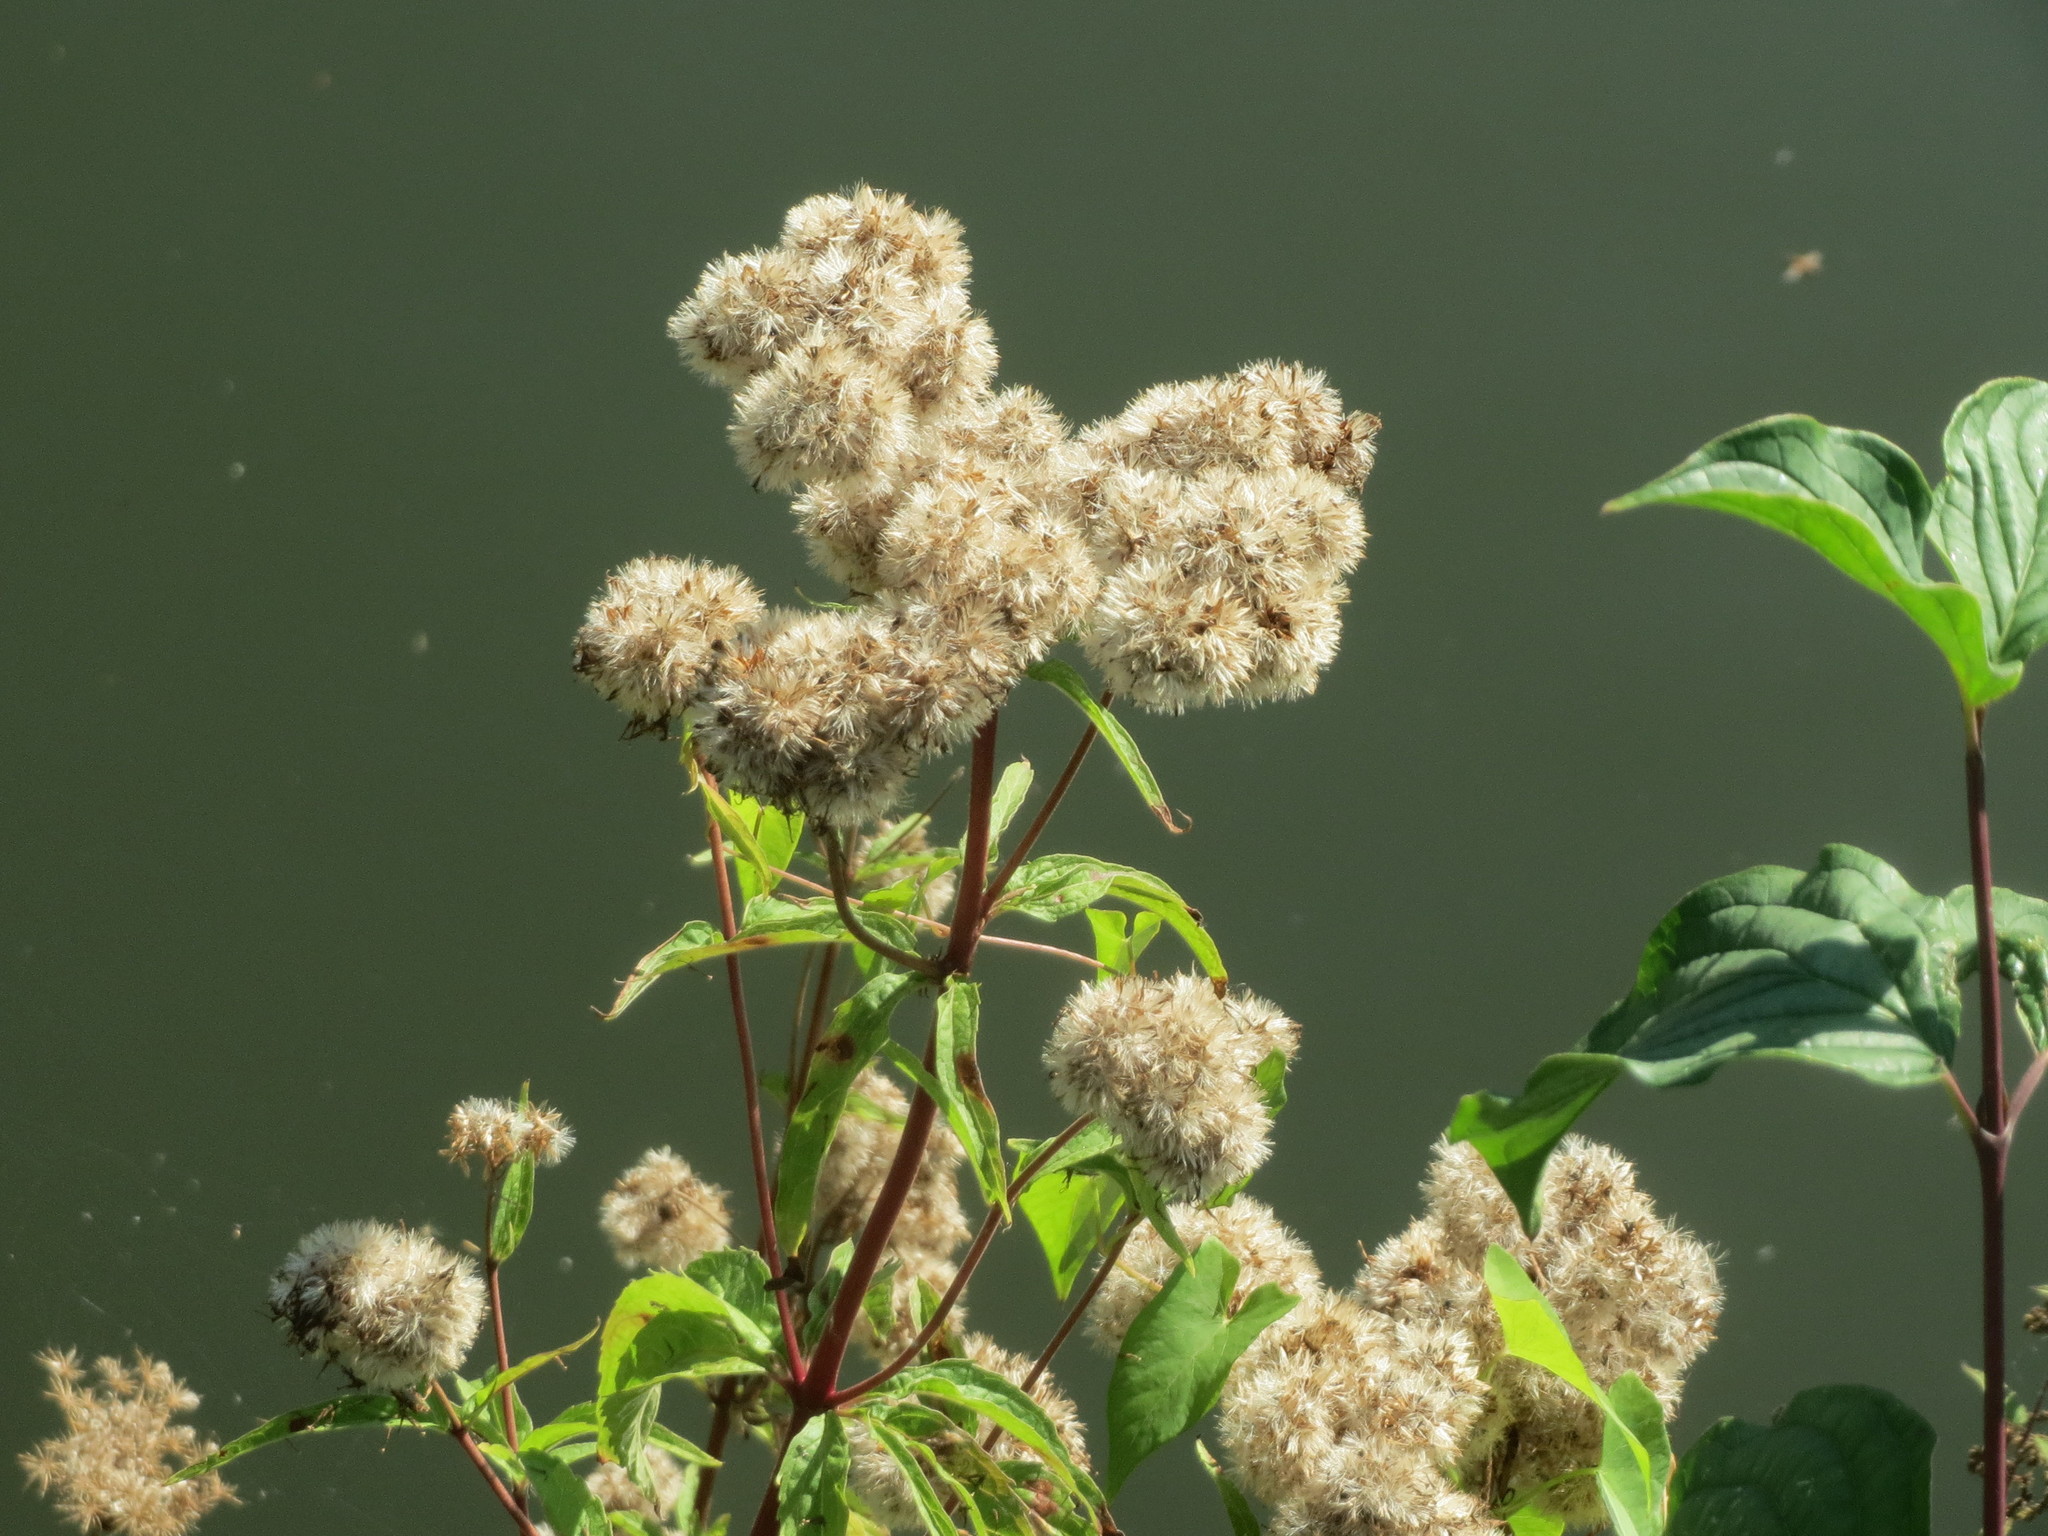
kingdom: Plantae
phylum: Tracheophyta
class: Magnoliopsida
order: Asterales
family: Asteraceae
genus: Eupatorium
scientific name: Eupatorium cannabinum
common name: Hemp-agrimony
